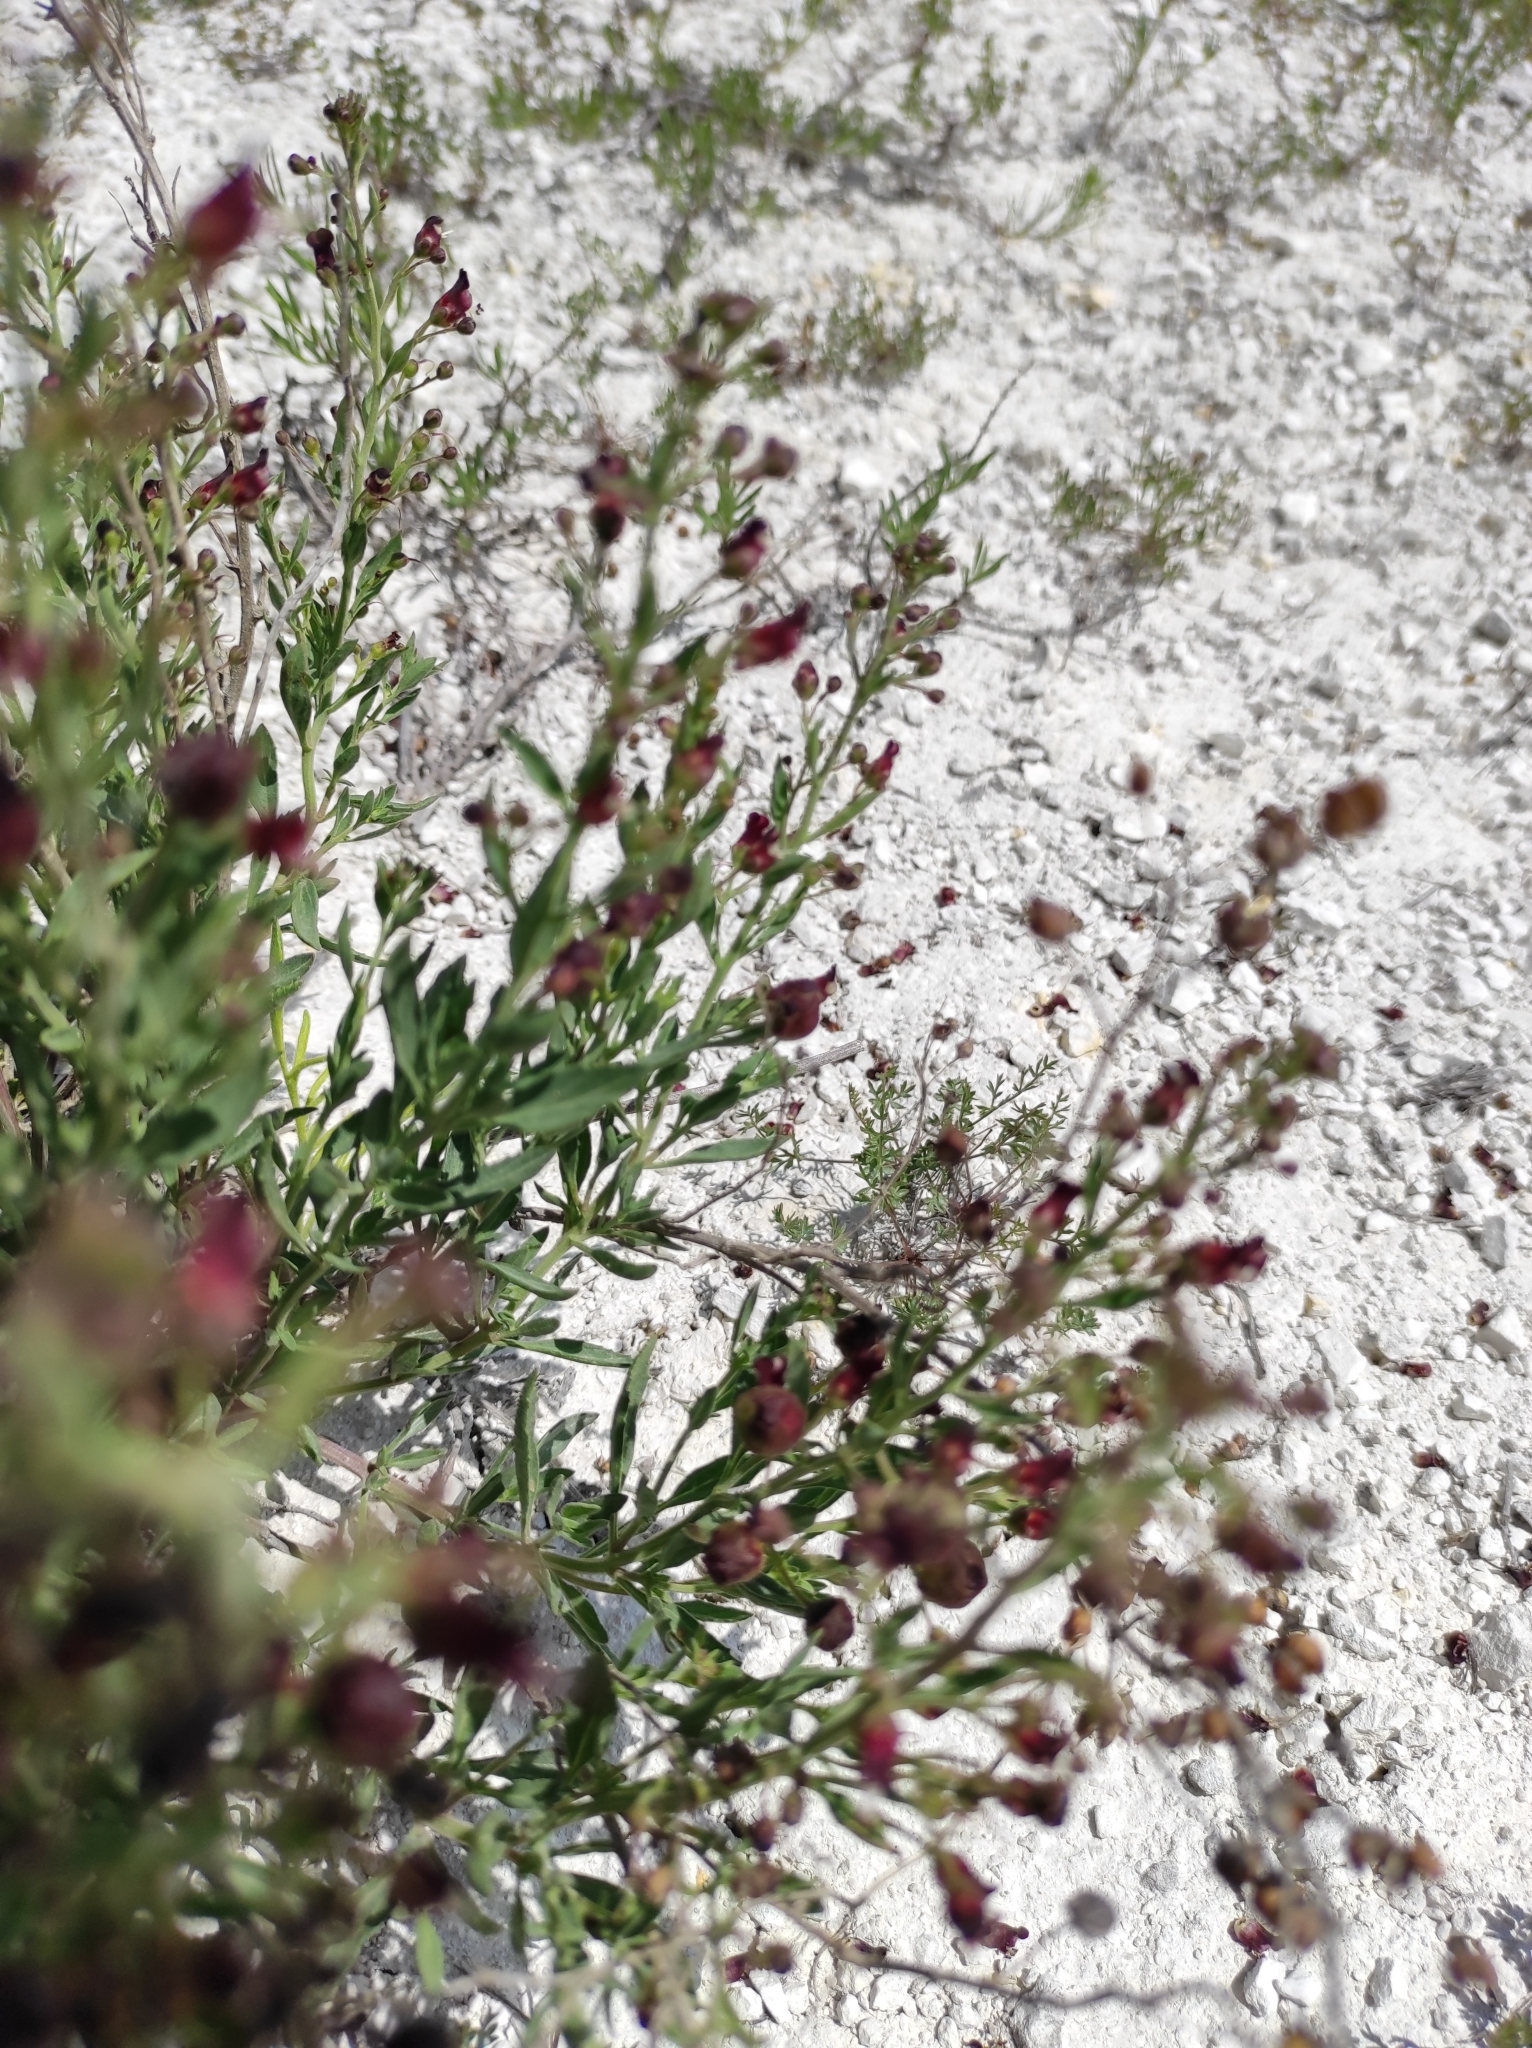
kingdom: Plantae
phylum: Tracheophyta
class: Magnoliopsida
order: Lamiales
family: Scrophulariaceae
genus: Scrophularia
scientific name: Scrophularia cretacea
